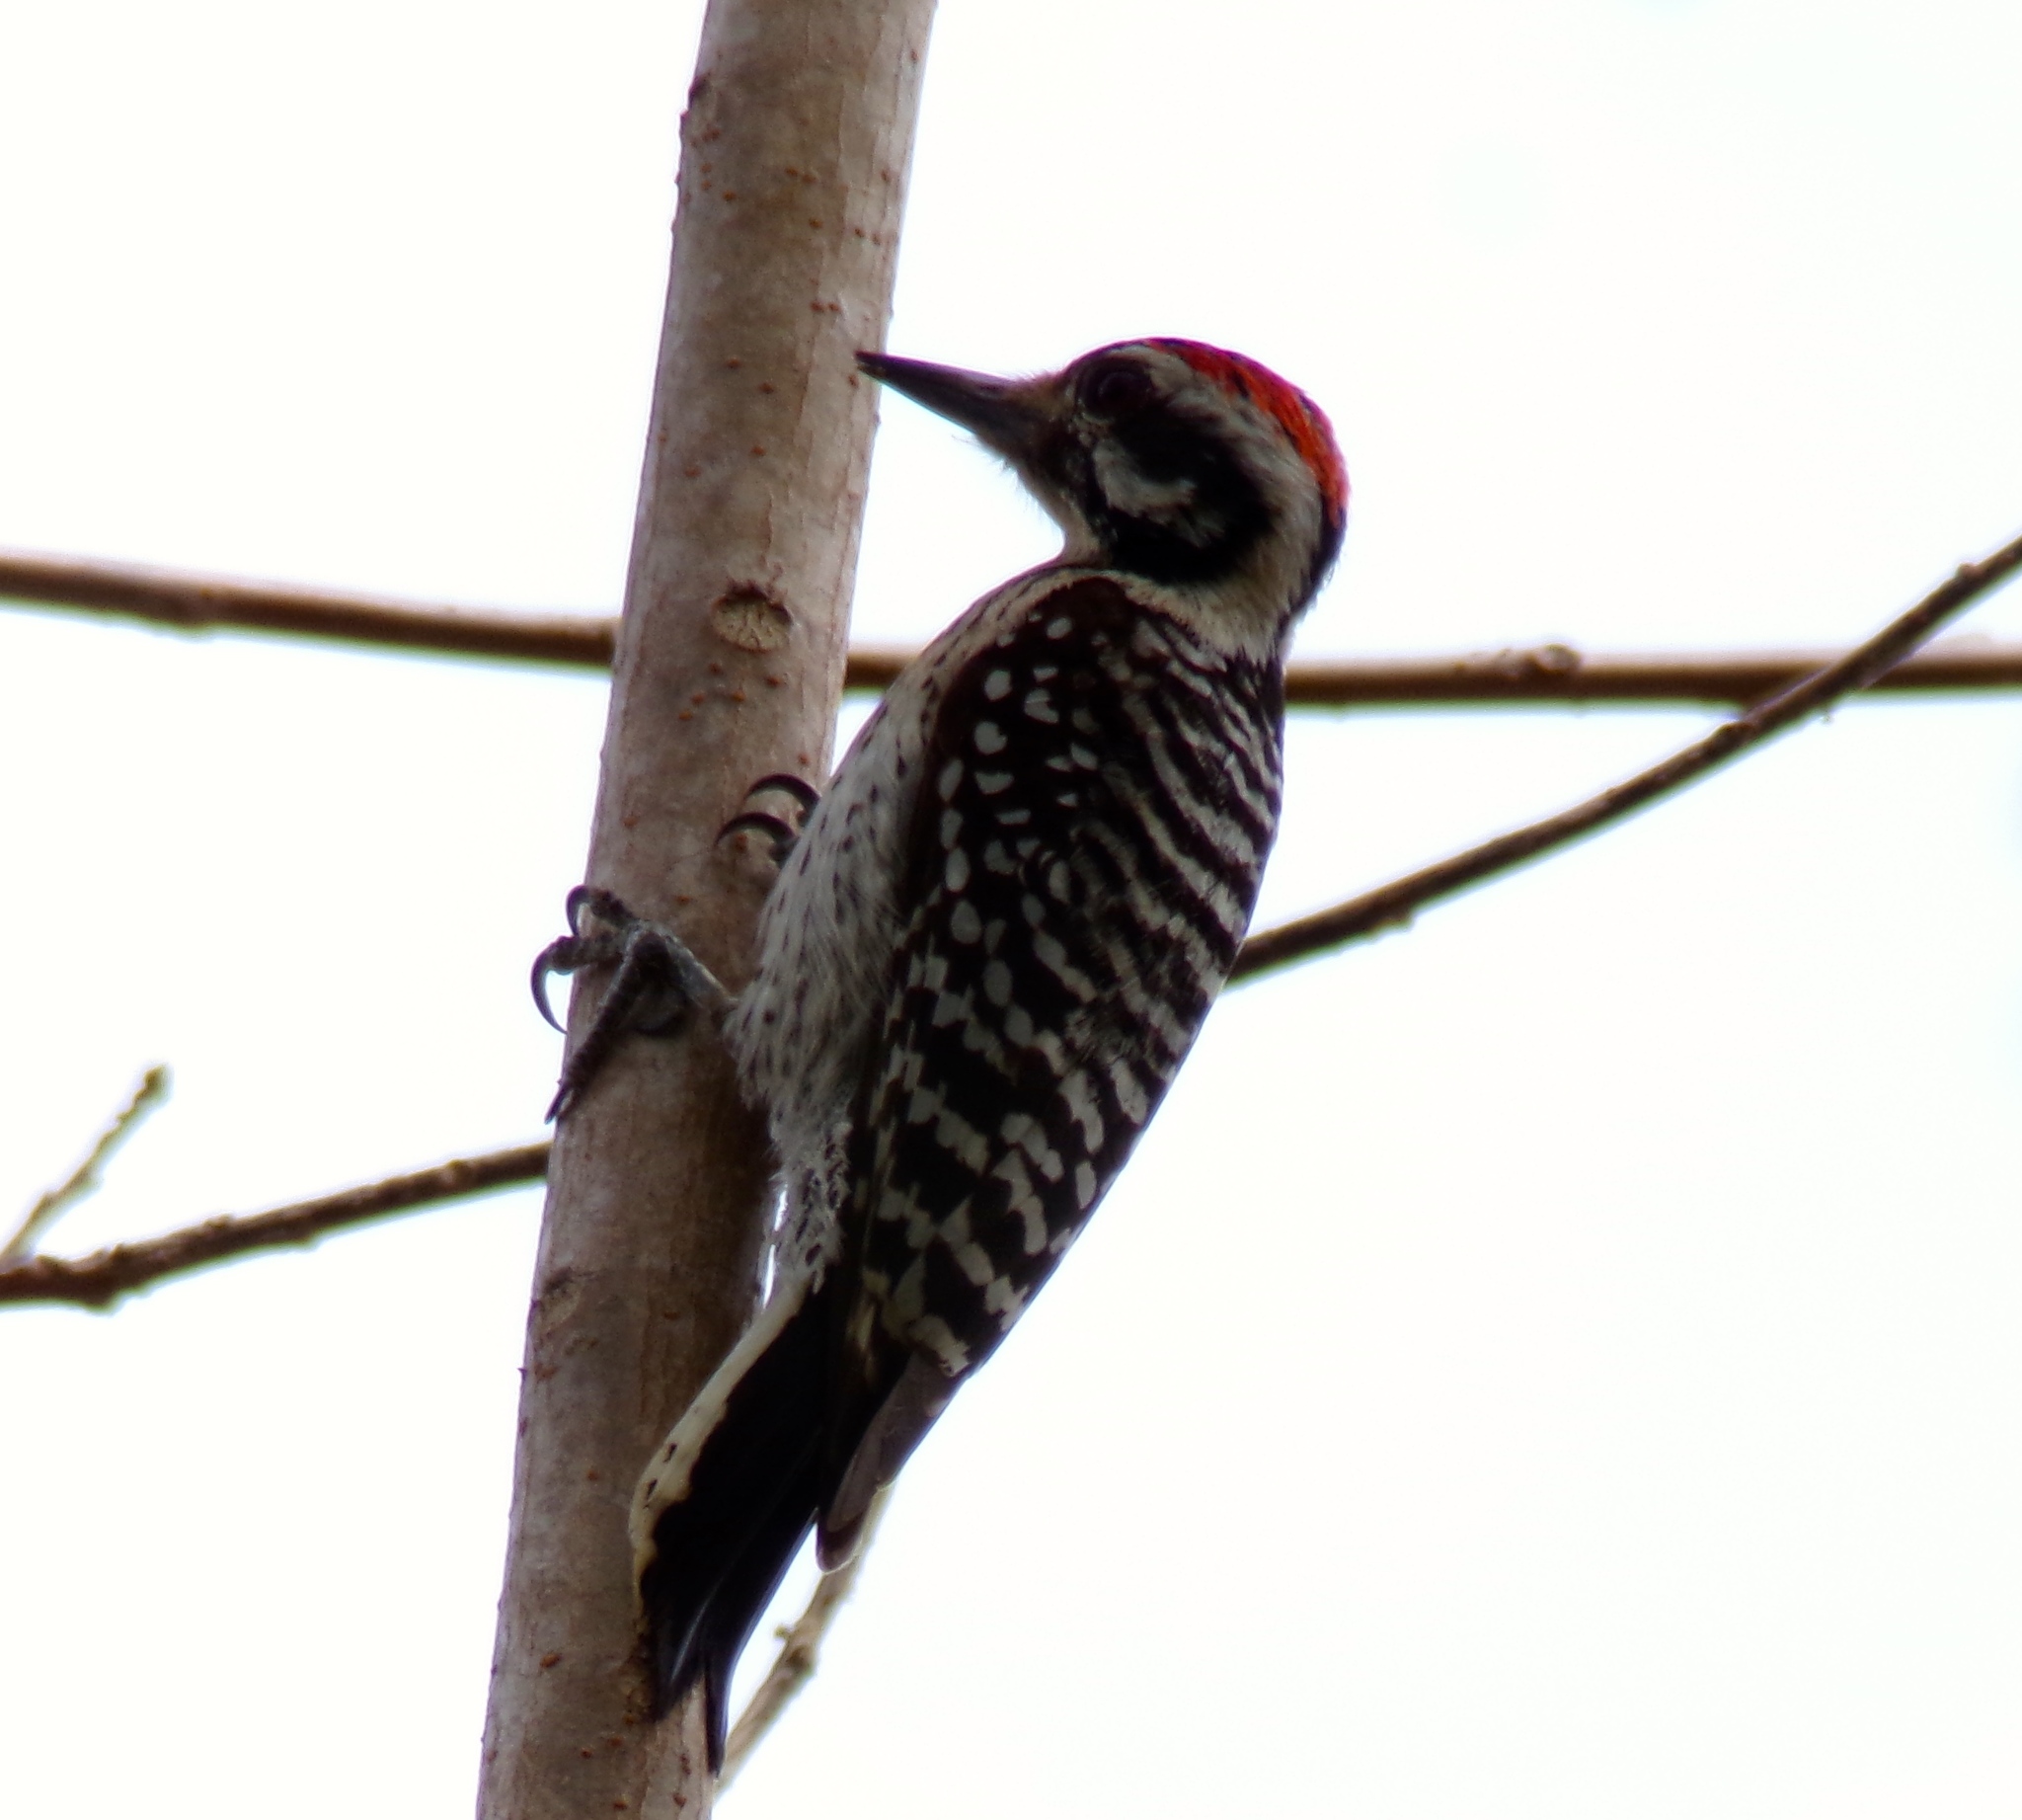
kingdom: Animalia
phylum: Chordata
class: Aves
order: Piciformes
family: Picidae
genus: Dryobates
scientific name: Dryobates scalaris
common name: Ladder-backed woodpecker
